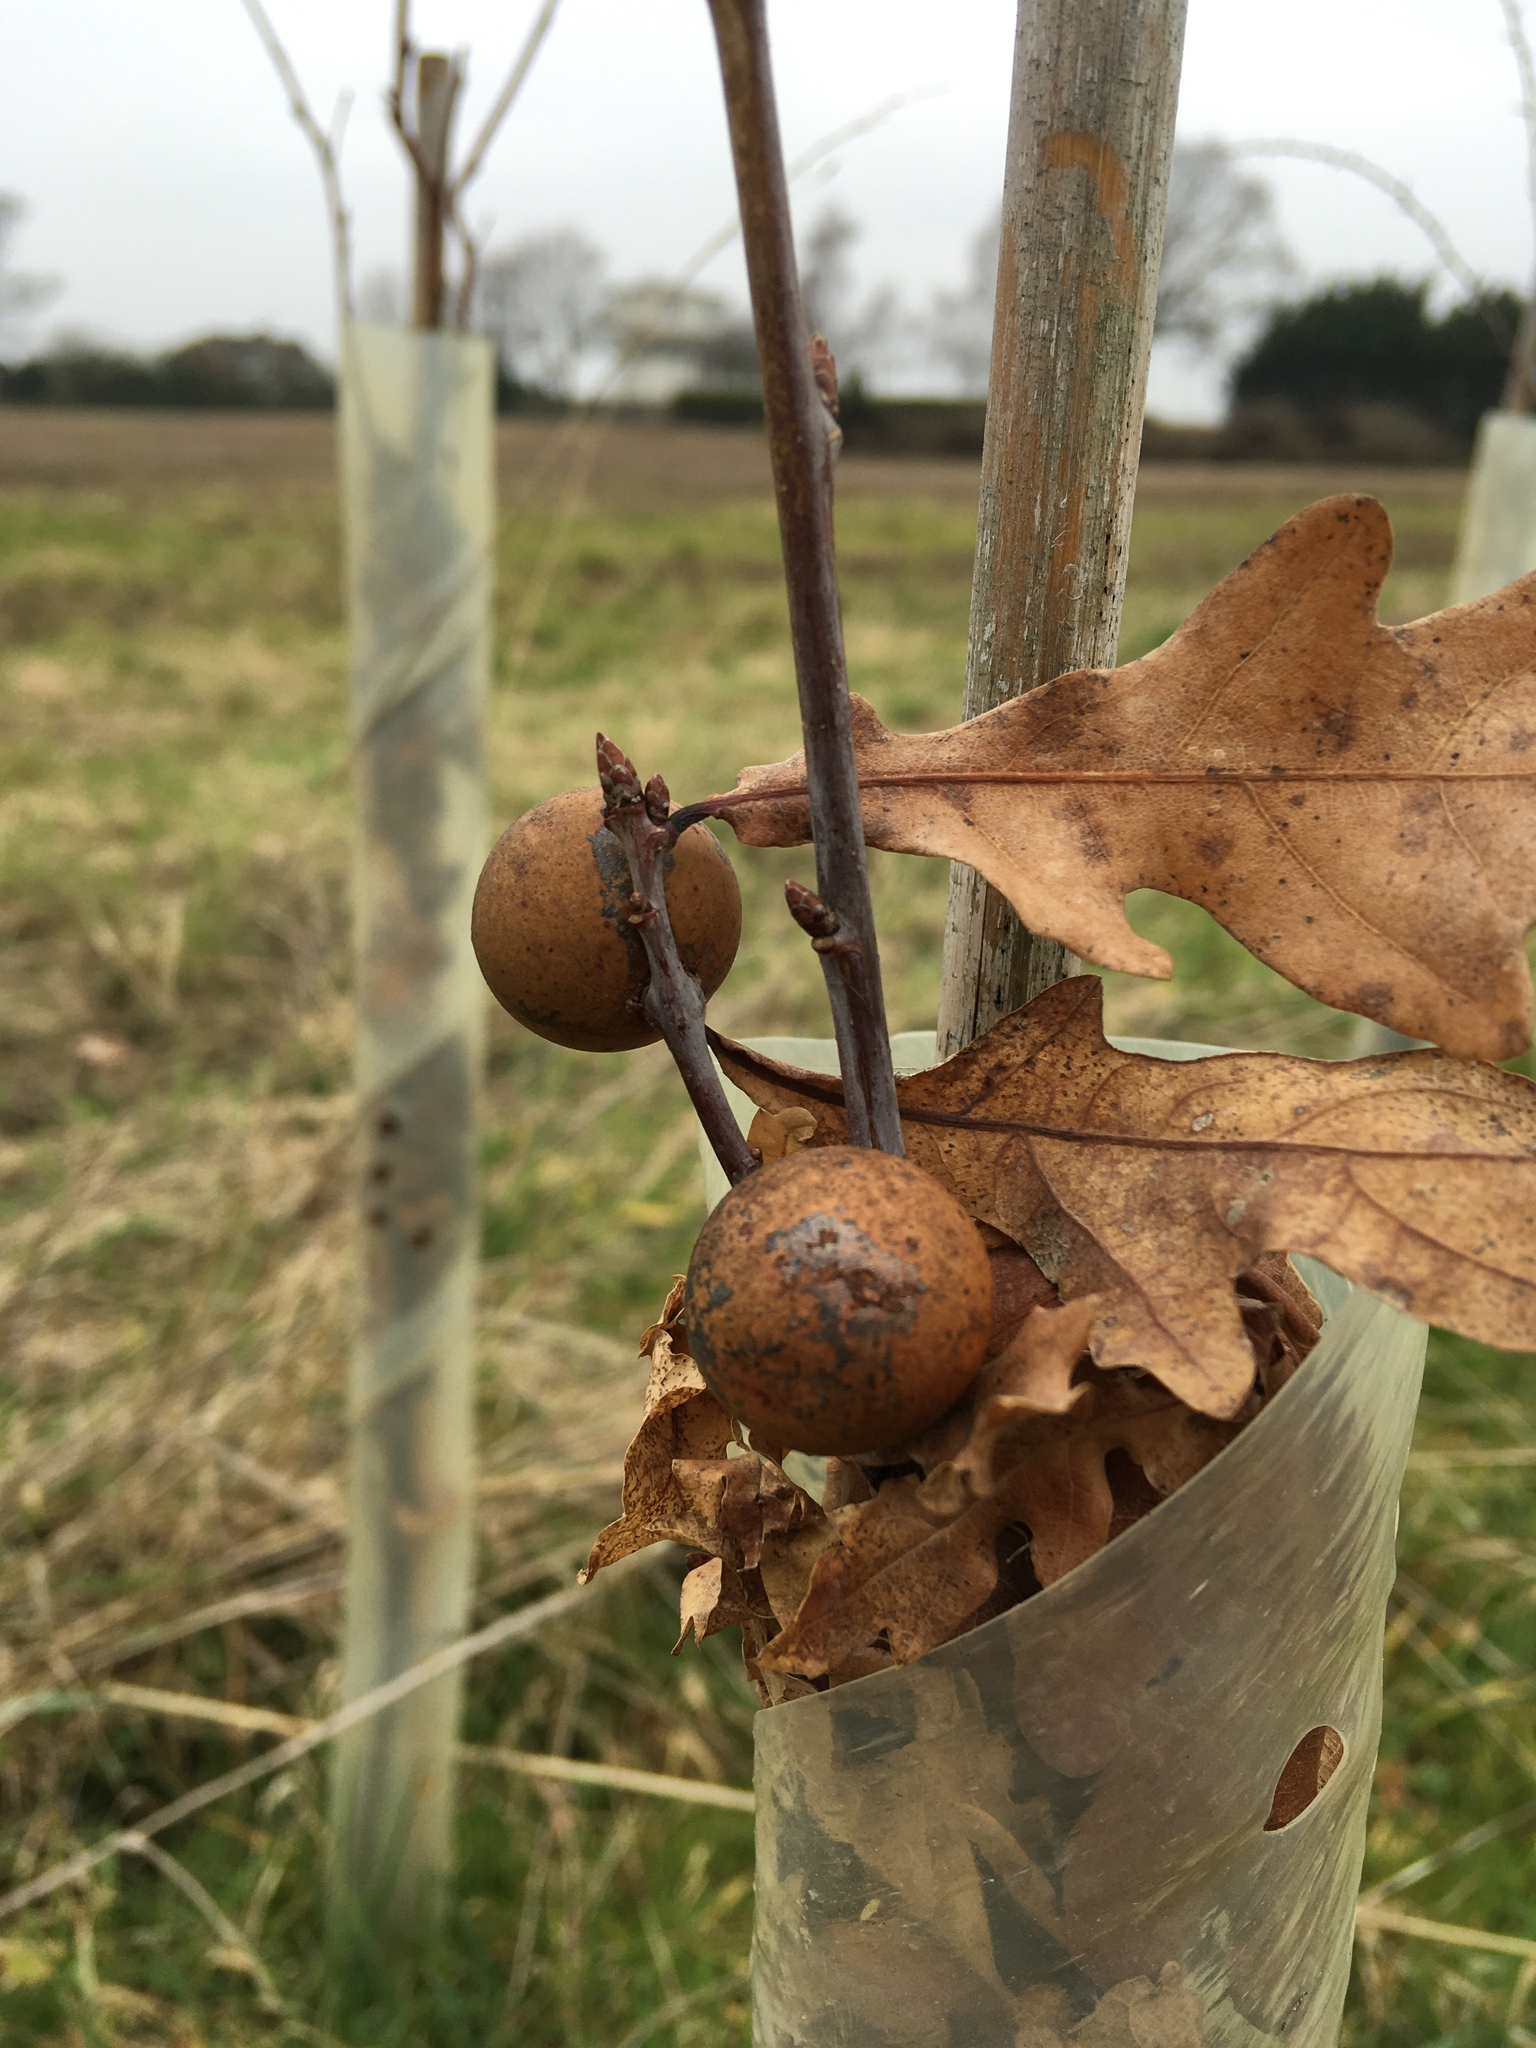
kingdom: Animalia
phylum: Arthropoda
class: Insecta
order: Hymenoptera
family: Cynipidae
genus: Andricus
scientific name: Andricus kollari
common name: Marble gall
